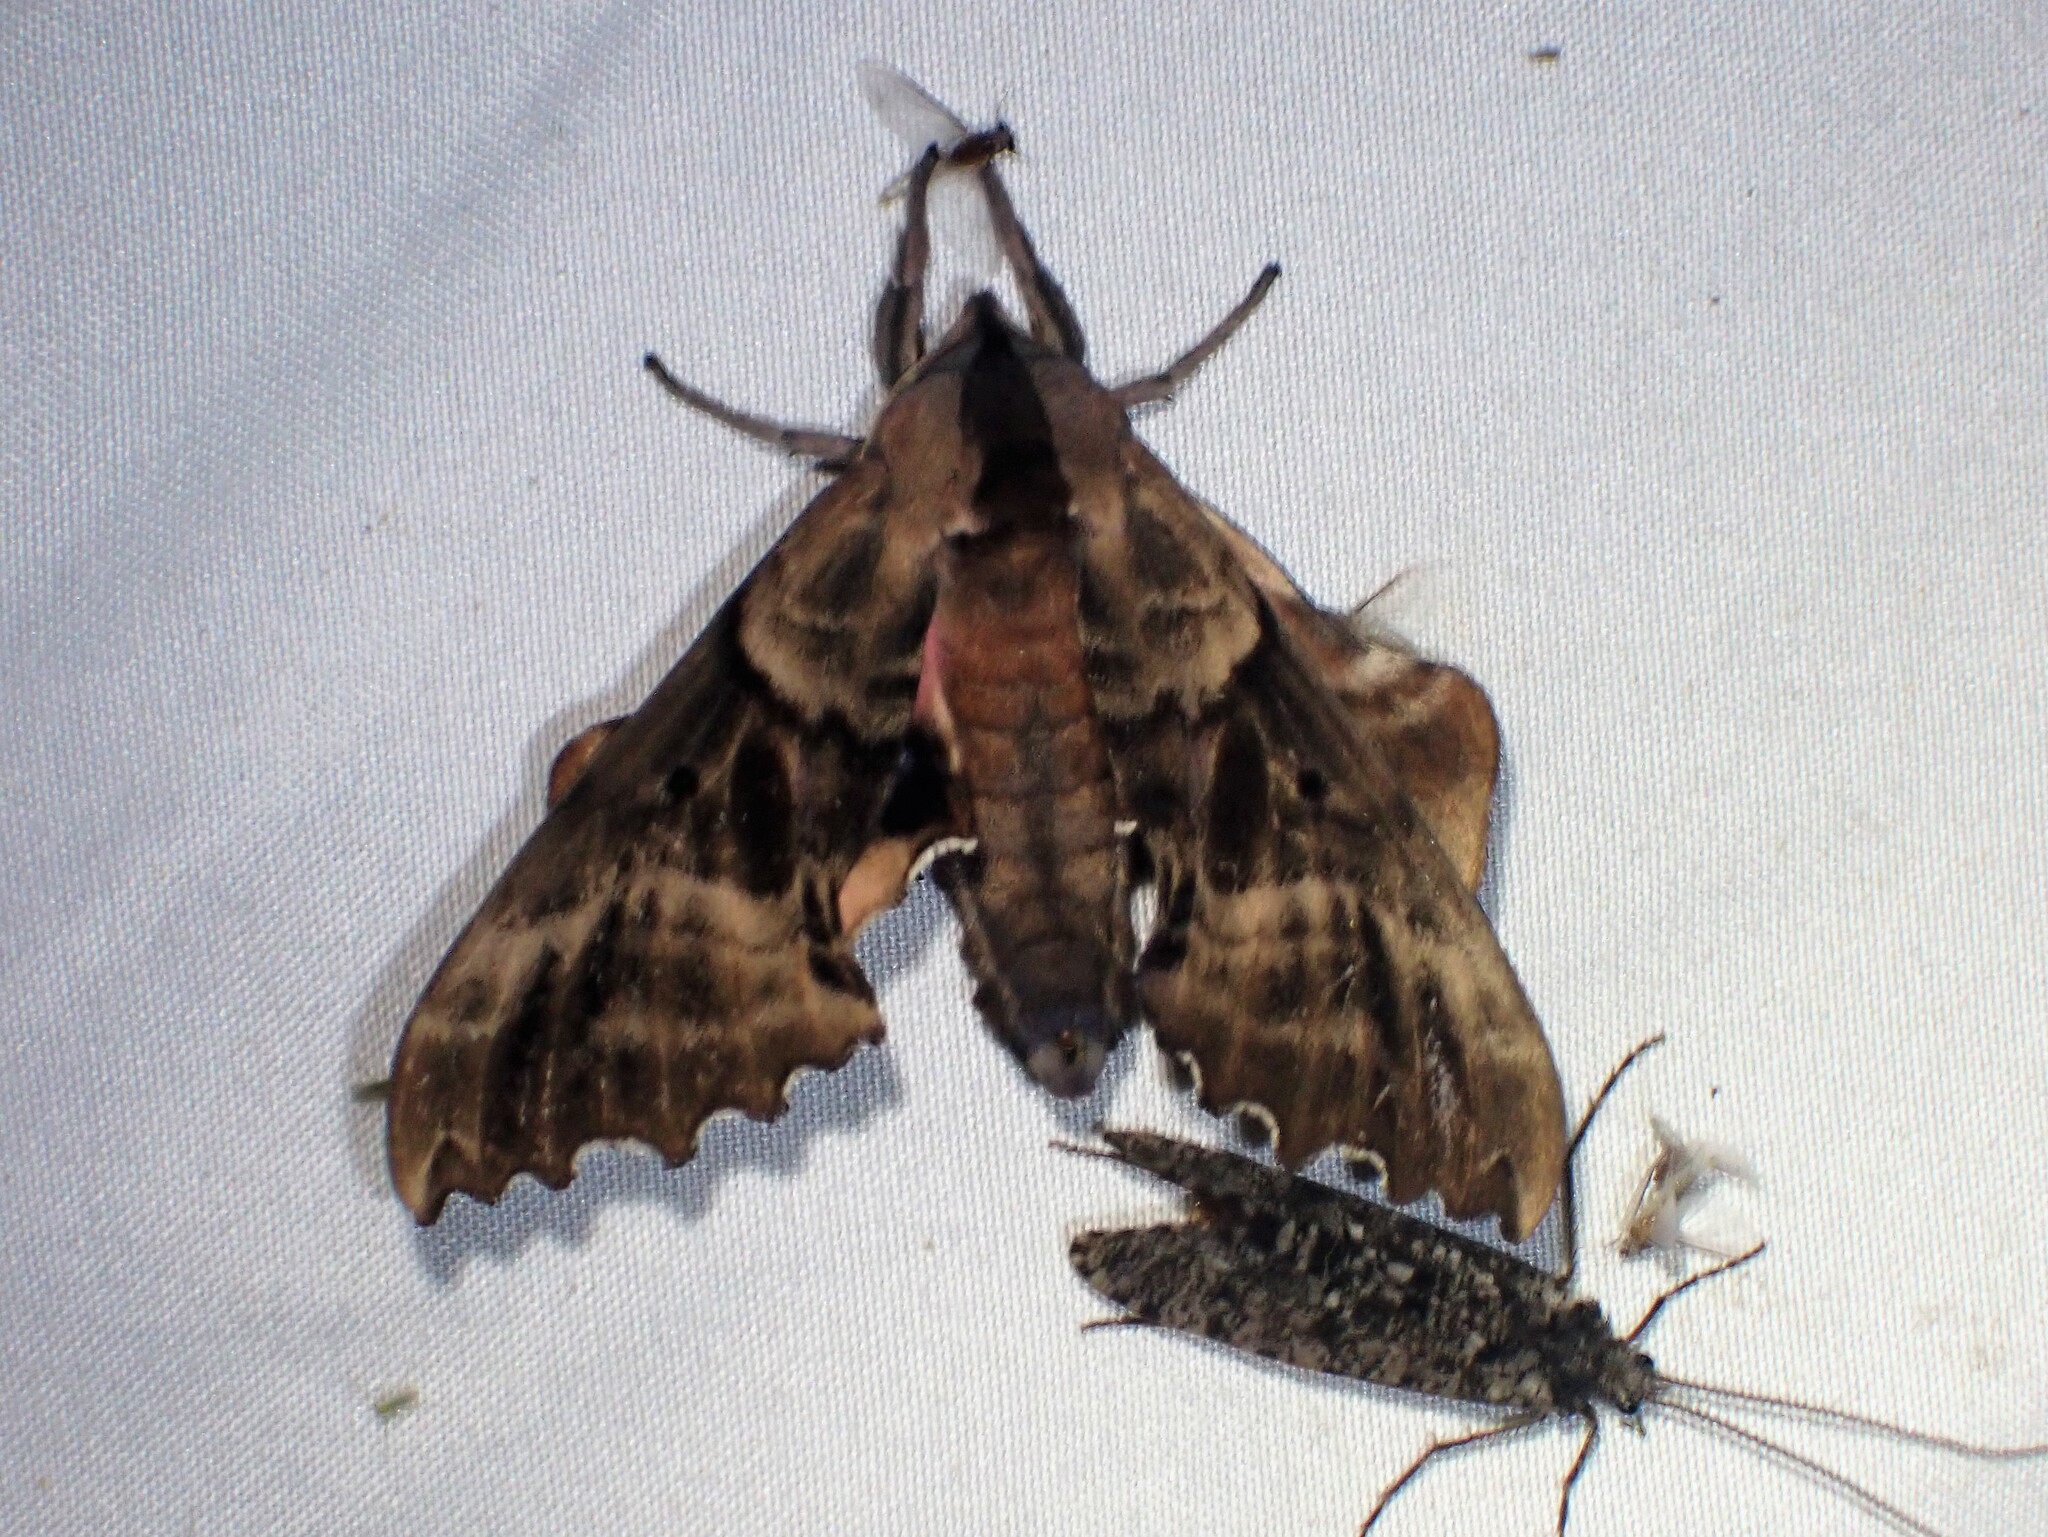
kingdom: Animalia
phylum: Arthropoda
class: Insecta
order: Lepidoptera
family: Sphingidae
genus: Paonias
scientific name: Paonias excaecata
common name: Blind-eyed sphinx
